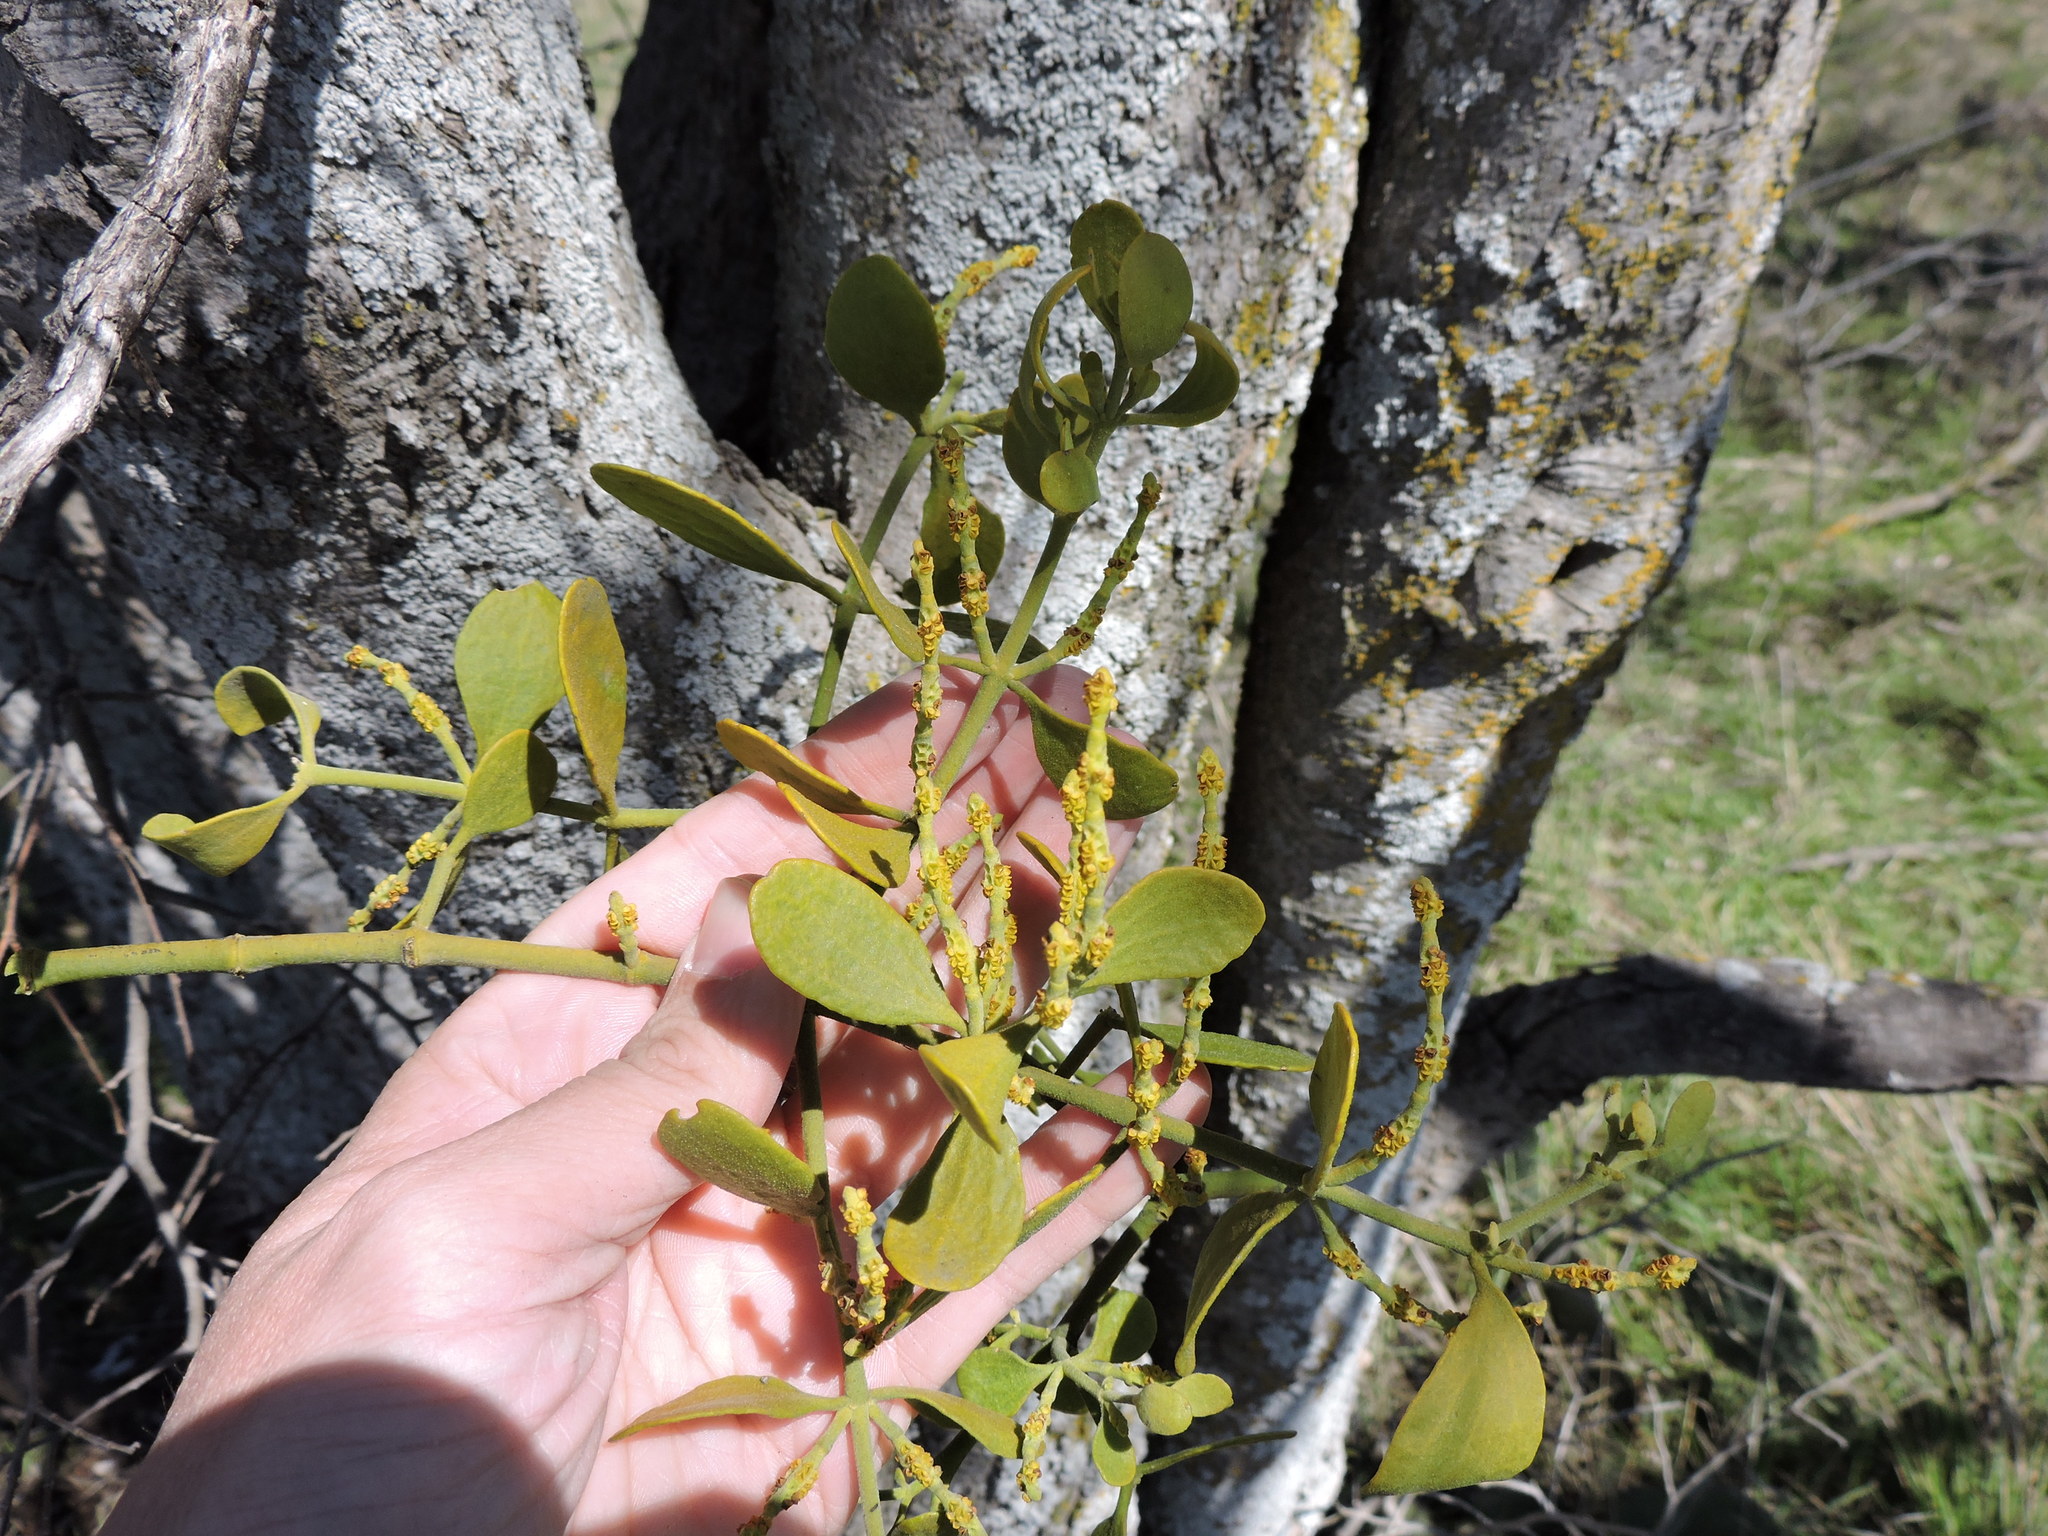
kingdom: Plantae
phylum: Tracheophyta
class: Magnoliopsida
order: Santalales
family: Viscaceae
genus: Phoradendron
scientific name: Phoradendron leucarpum
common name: Pacific mistletoe
